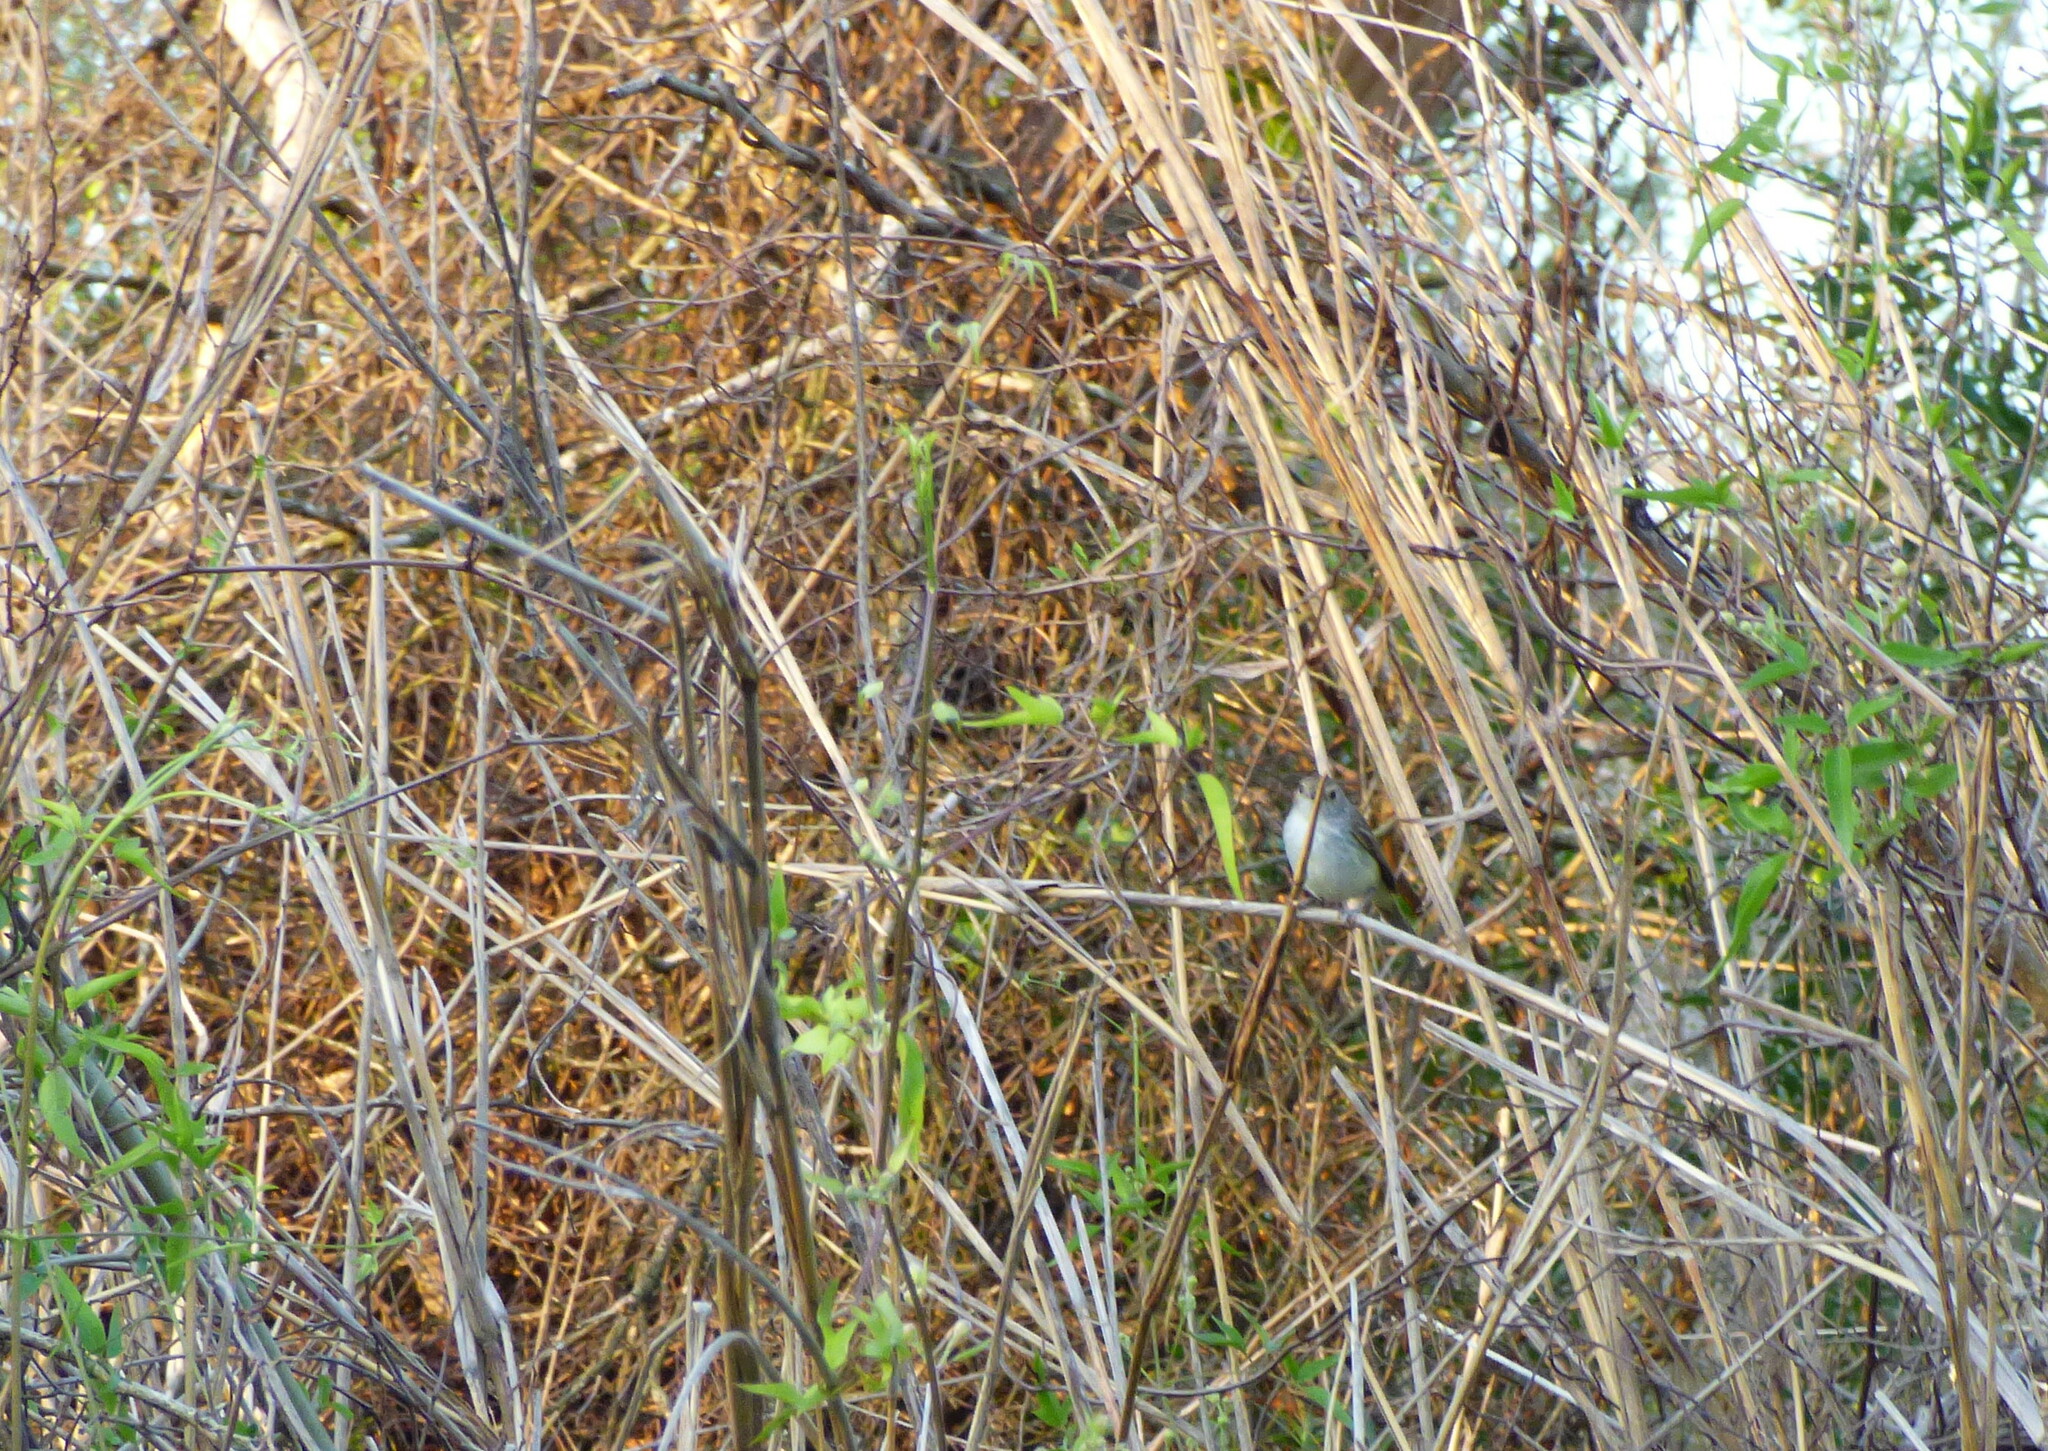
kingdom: Animalia
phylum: Chordata
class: Aves
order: Passeriformes
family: Tyrannidae
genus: Euscarthmus
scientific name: Euscarthmus meloryphus
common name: Tawny-crowned pygmy tyrant
